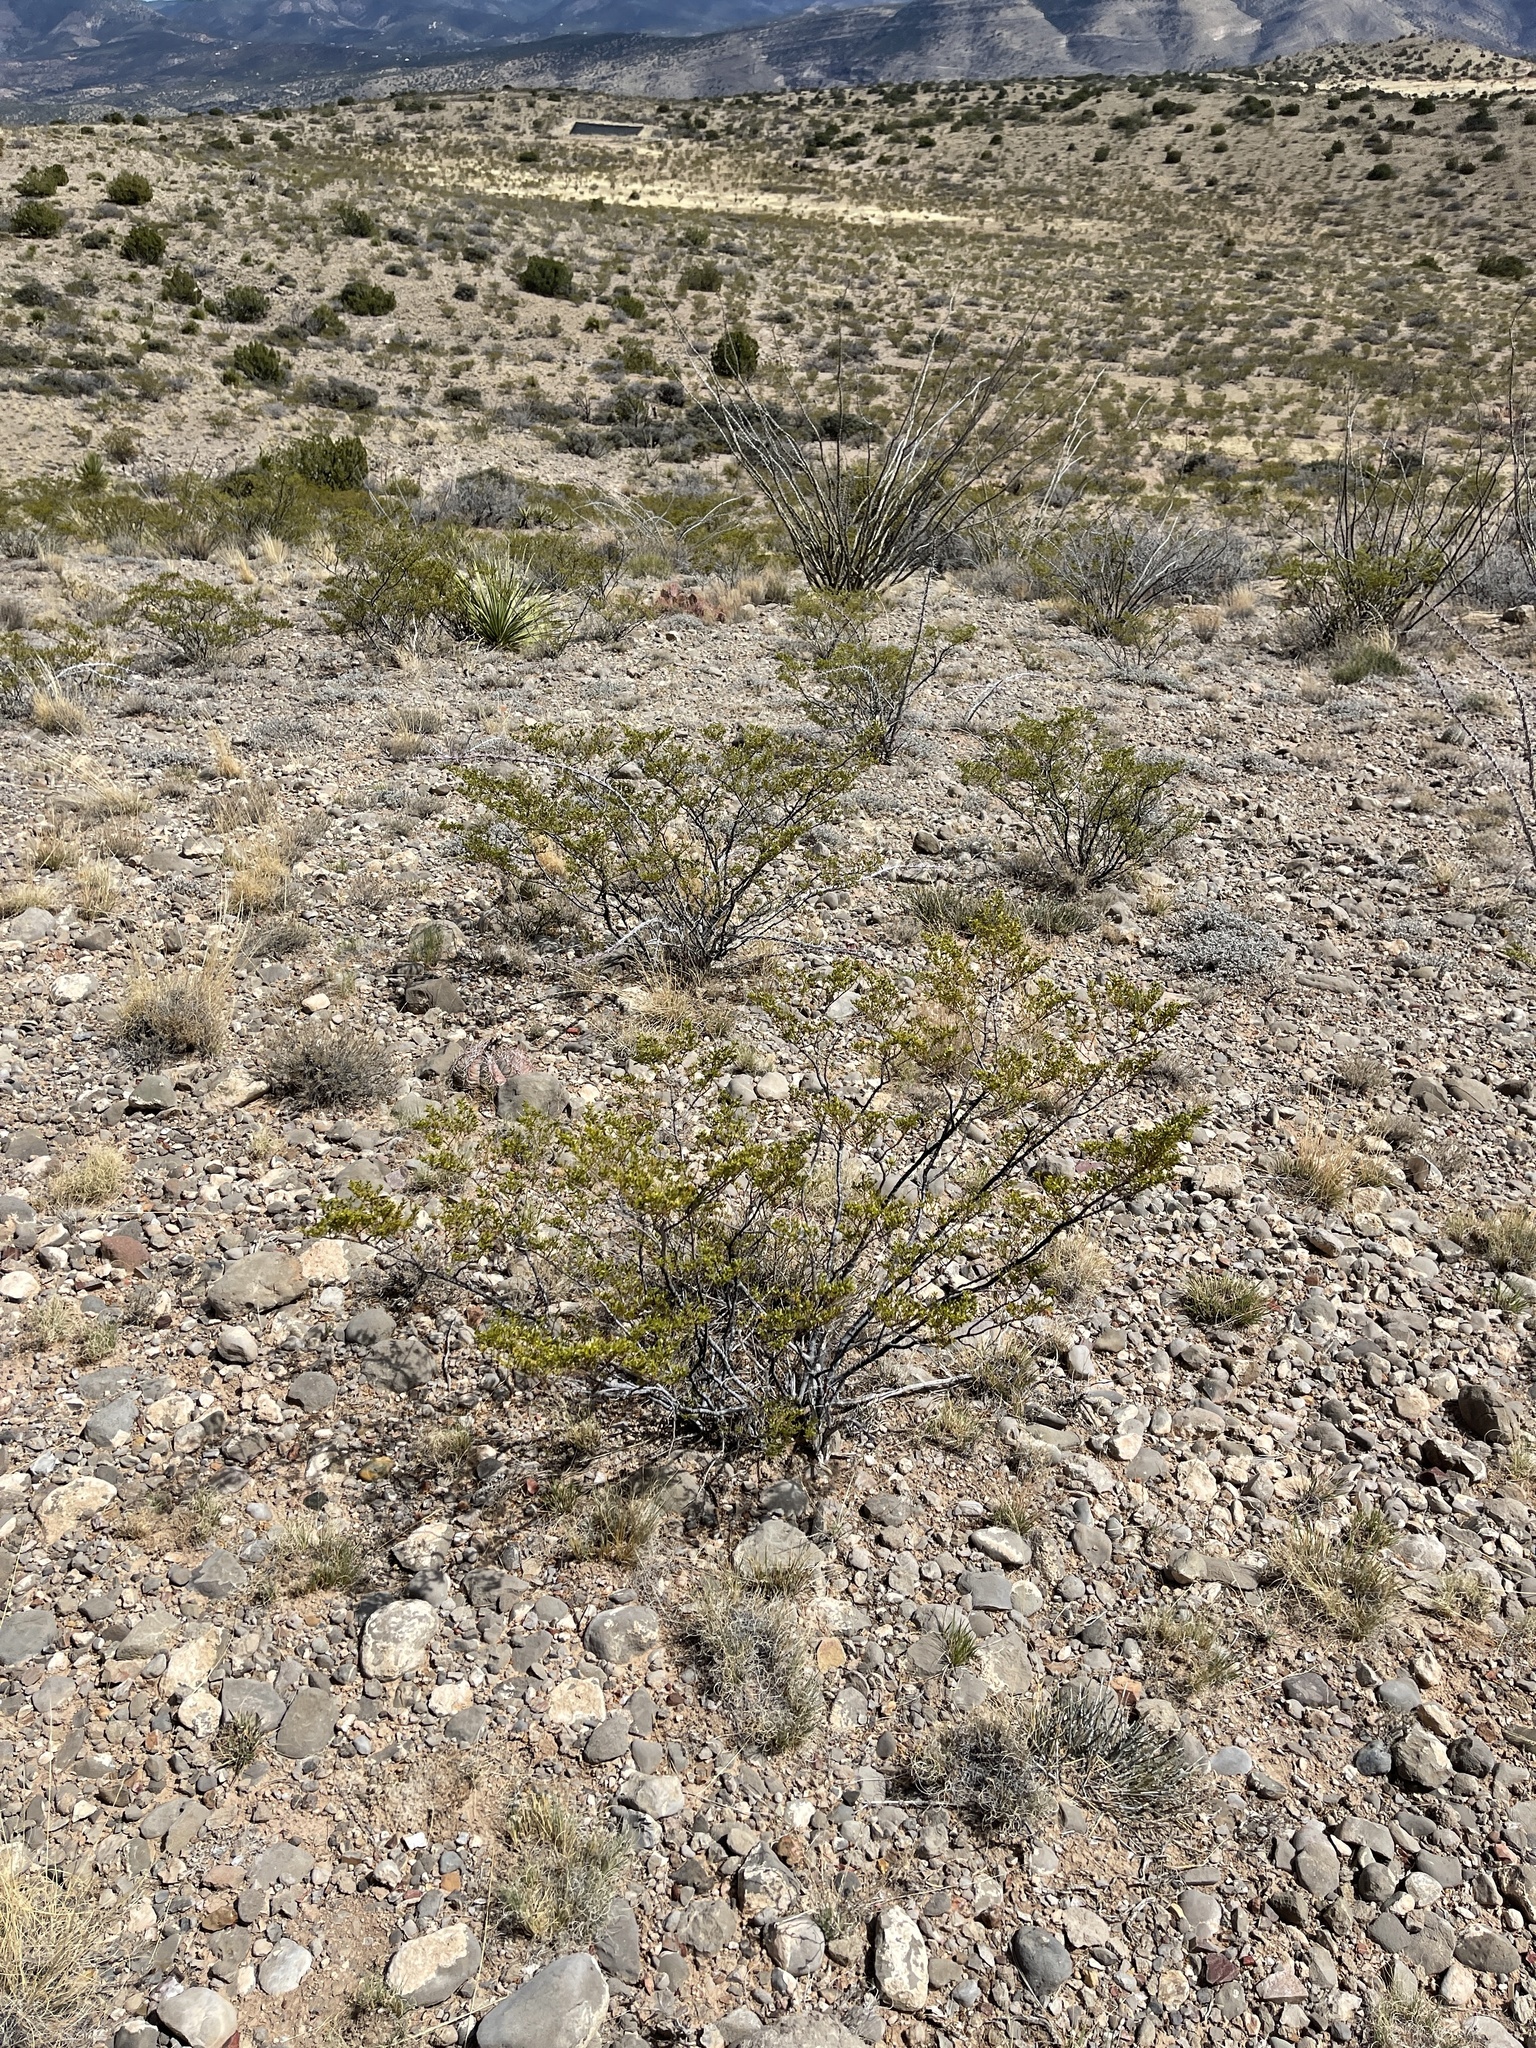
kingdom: Plantae
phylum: Tracheophyta
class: Magnoliopsida
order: Zygophyllales
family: Zygophyllaceae
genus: Larrea
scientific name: Larrea tridentata
